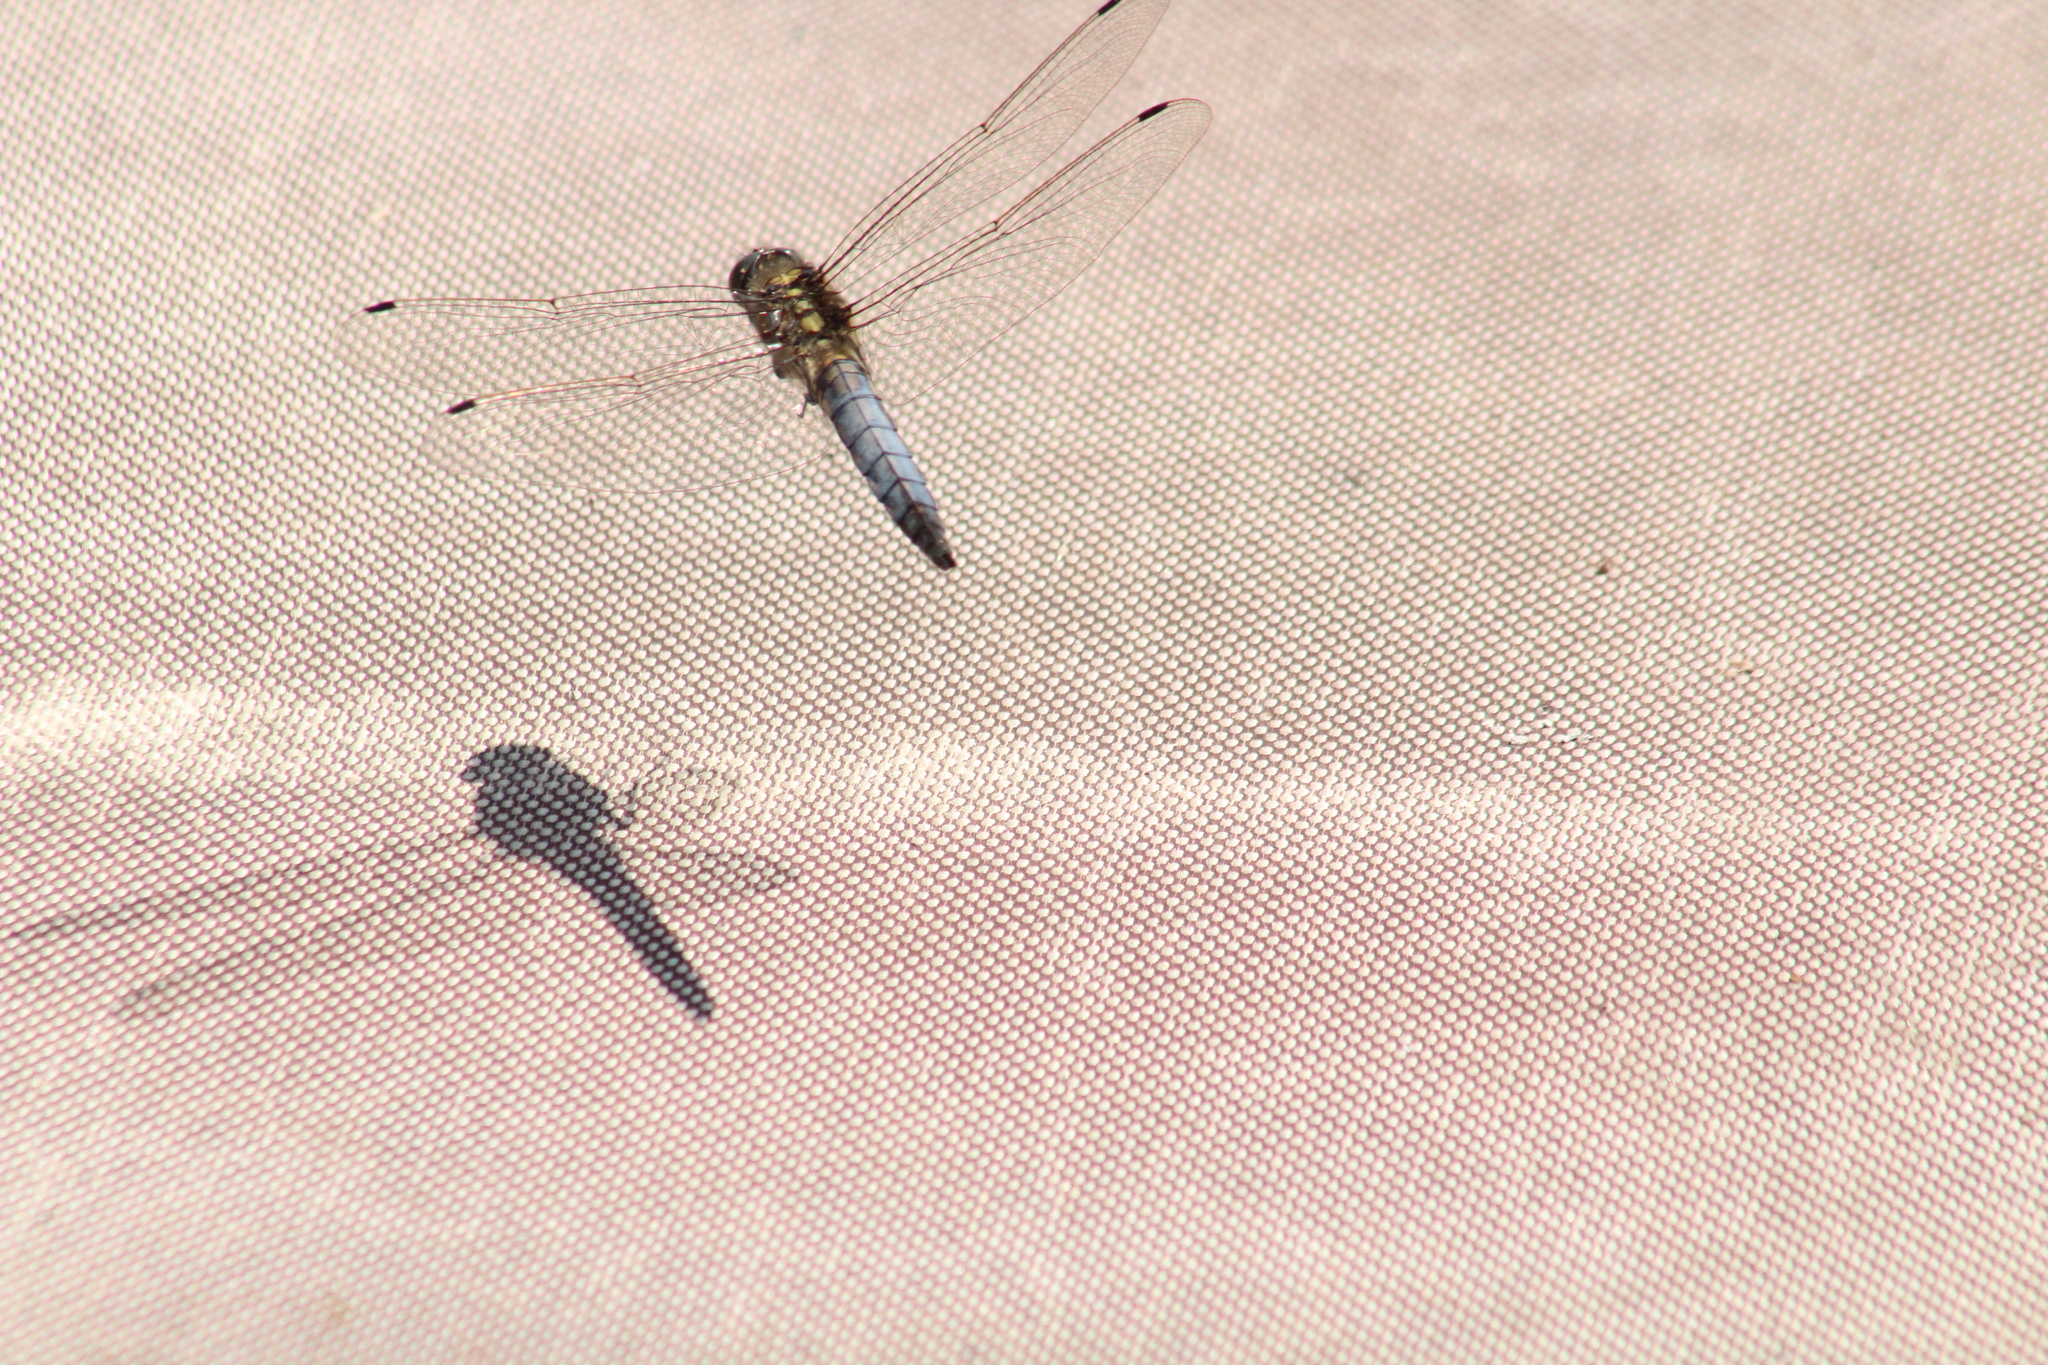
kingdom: Animalia
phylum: Arthropoda
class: Insecta
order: Odonata
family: Libellulidae
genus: Orthetrum
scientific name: Orthetrum cancellatum
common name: Black-tailed skimmer
